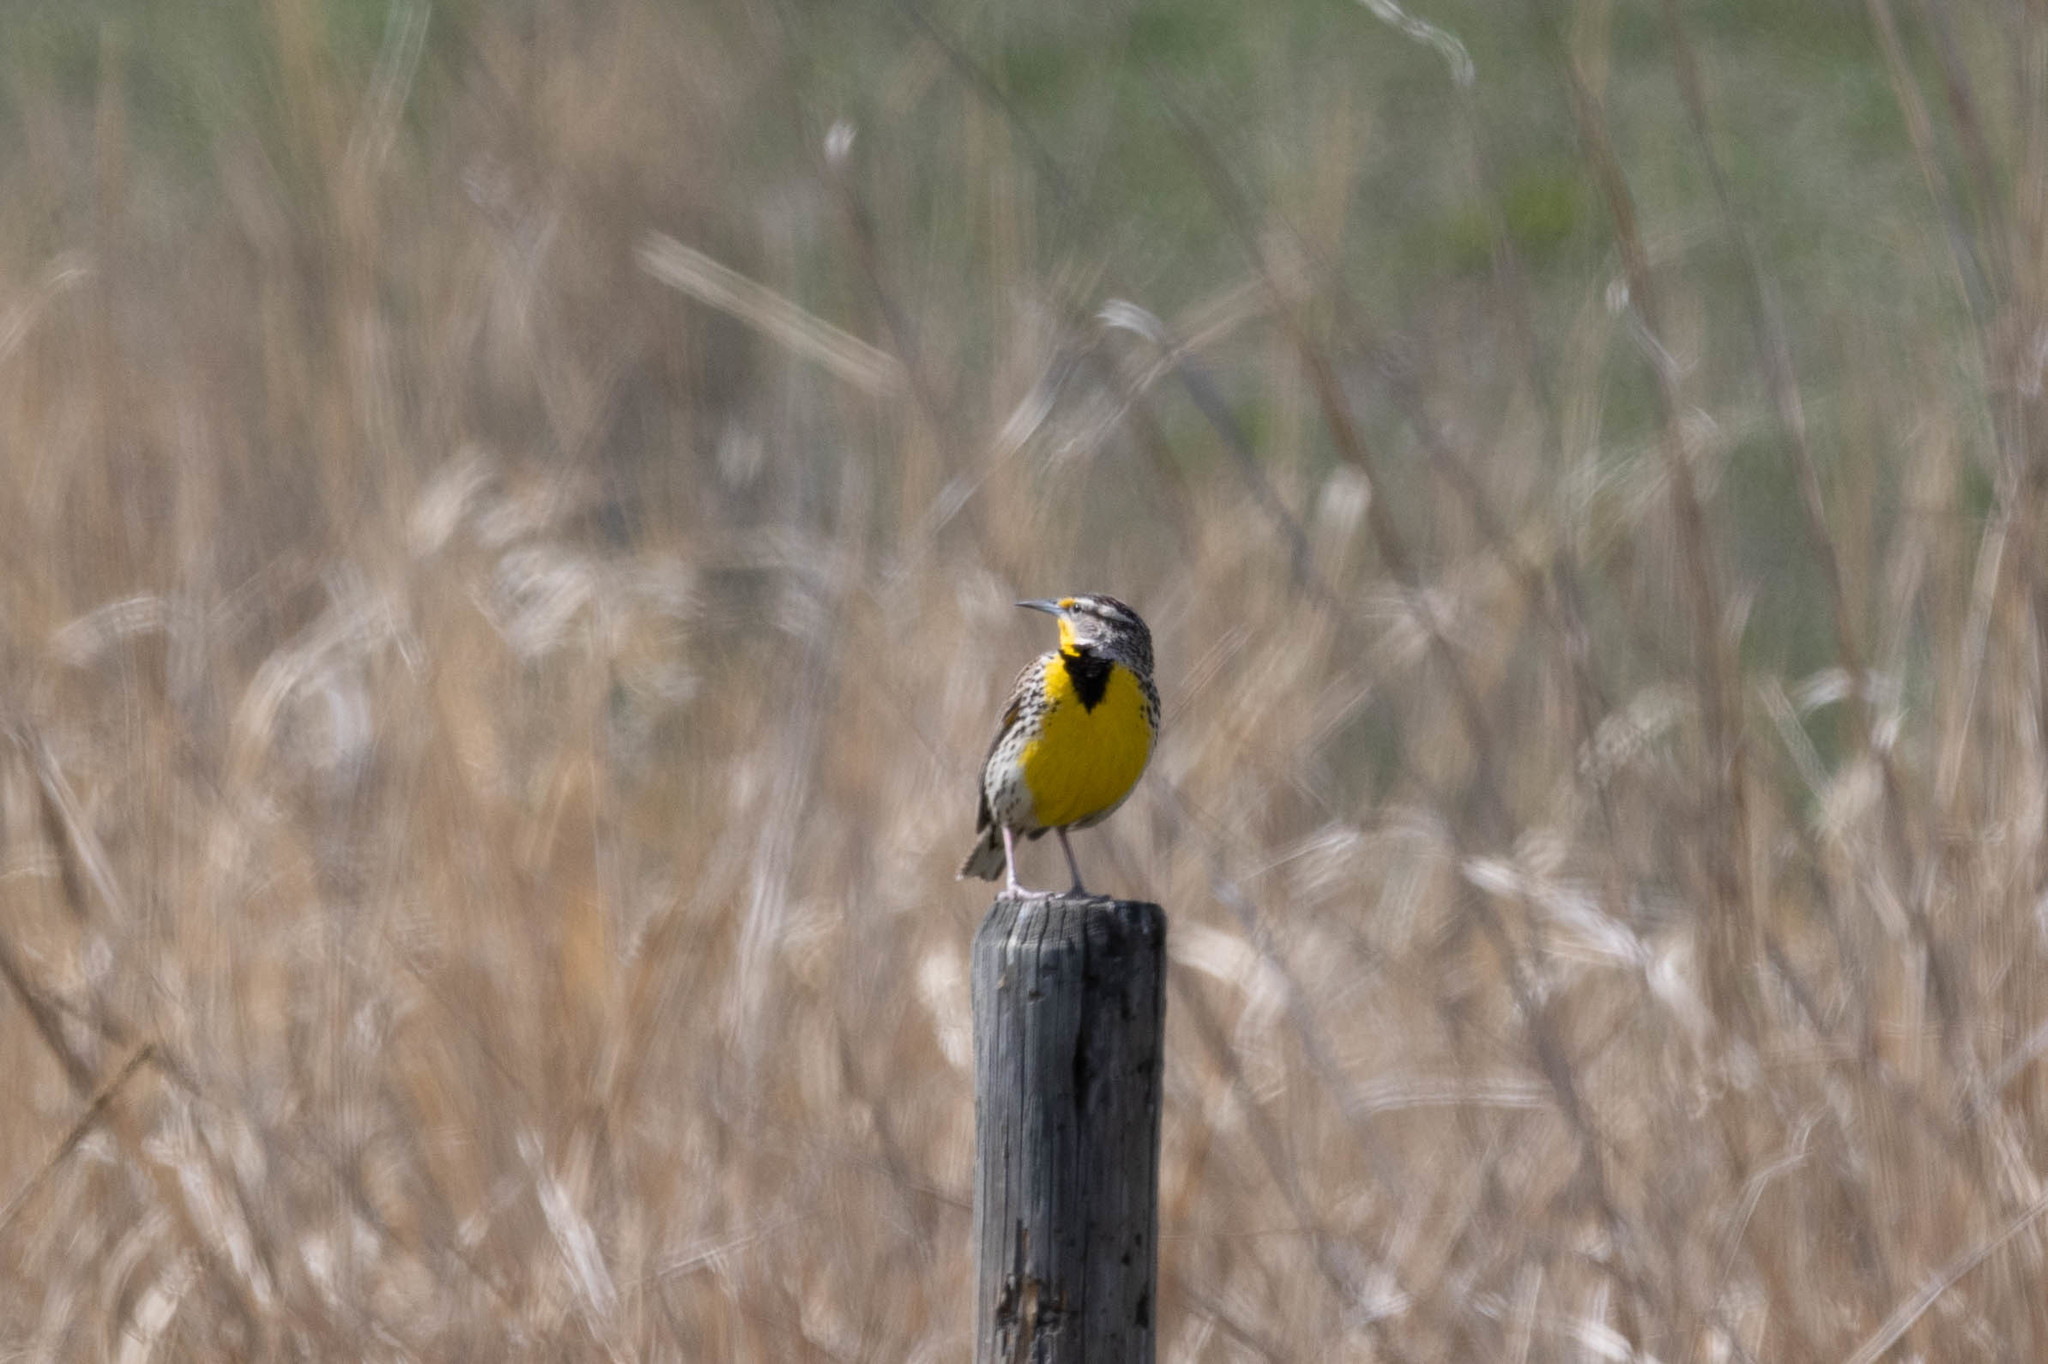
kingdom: Animalia
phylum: Chordata
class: Aves
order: Passeriformes
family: Icteridae
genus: Sturnella
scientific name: Sturnella neglecta
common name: Western meadowlark
